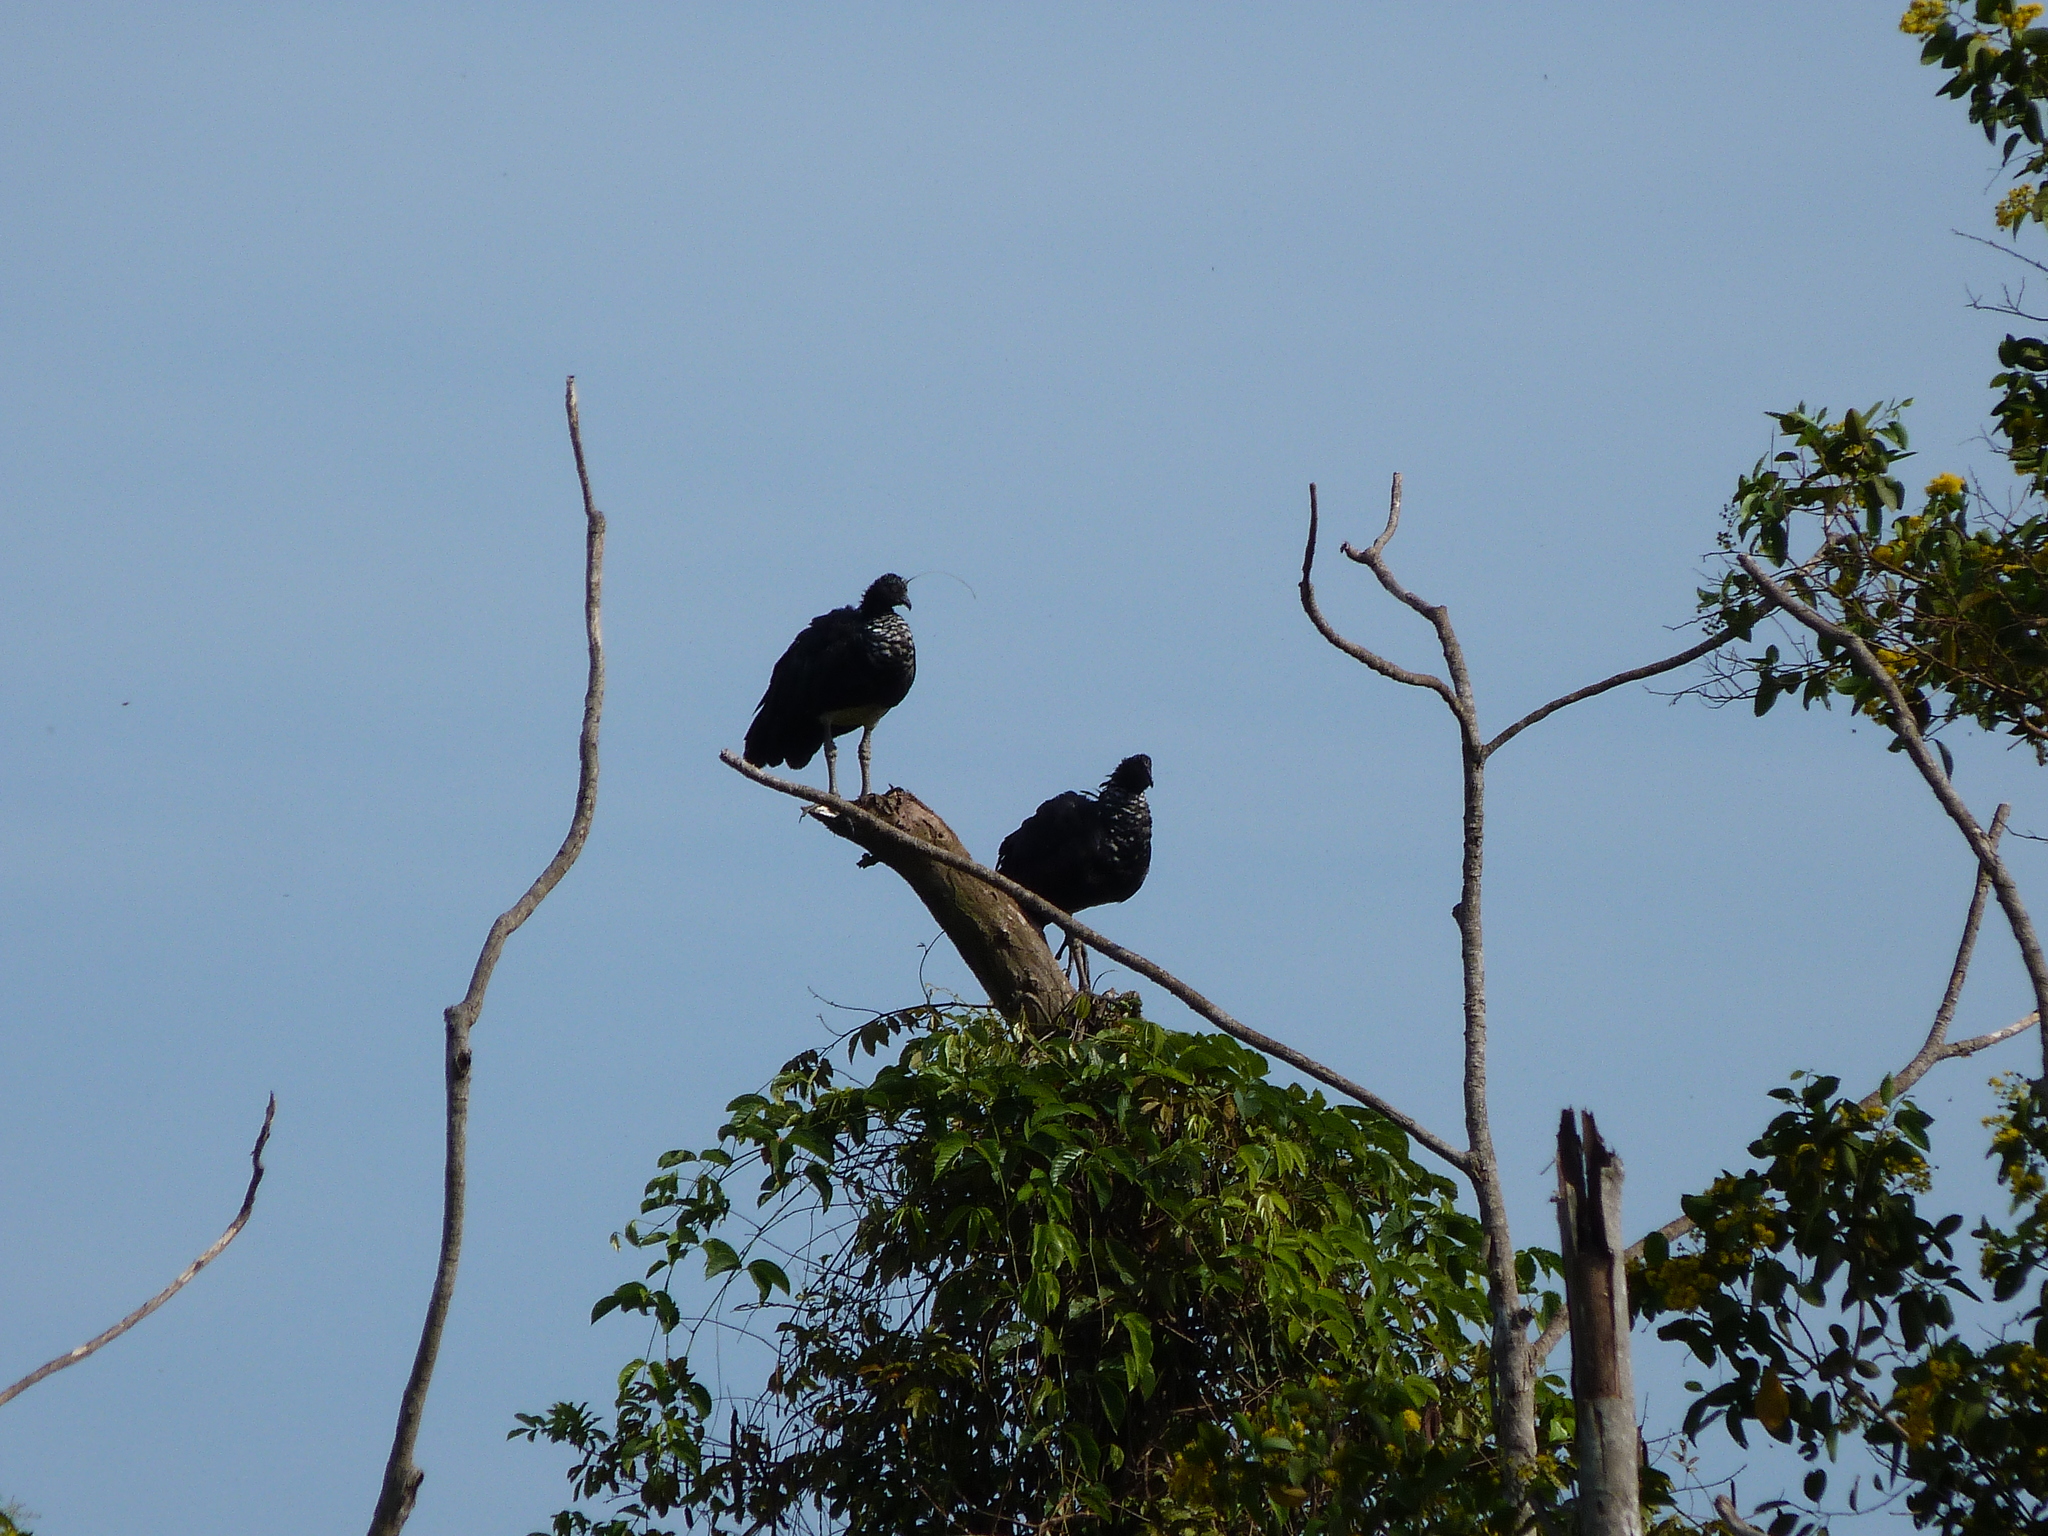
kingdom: Animalia
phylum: Chordata
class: Aves
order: Anseriformes
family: Anhimidae
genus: Anhima
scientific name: Anhima cornuta
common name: Horned screamer
